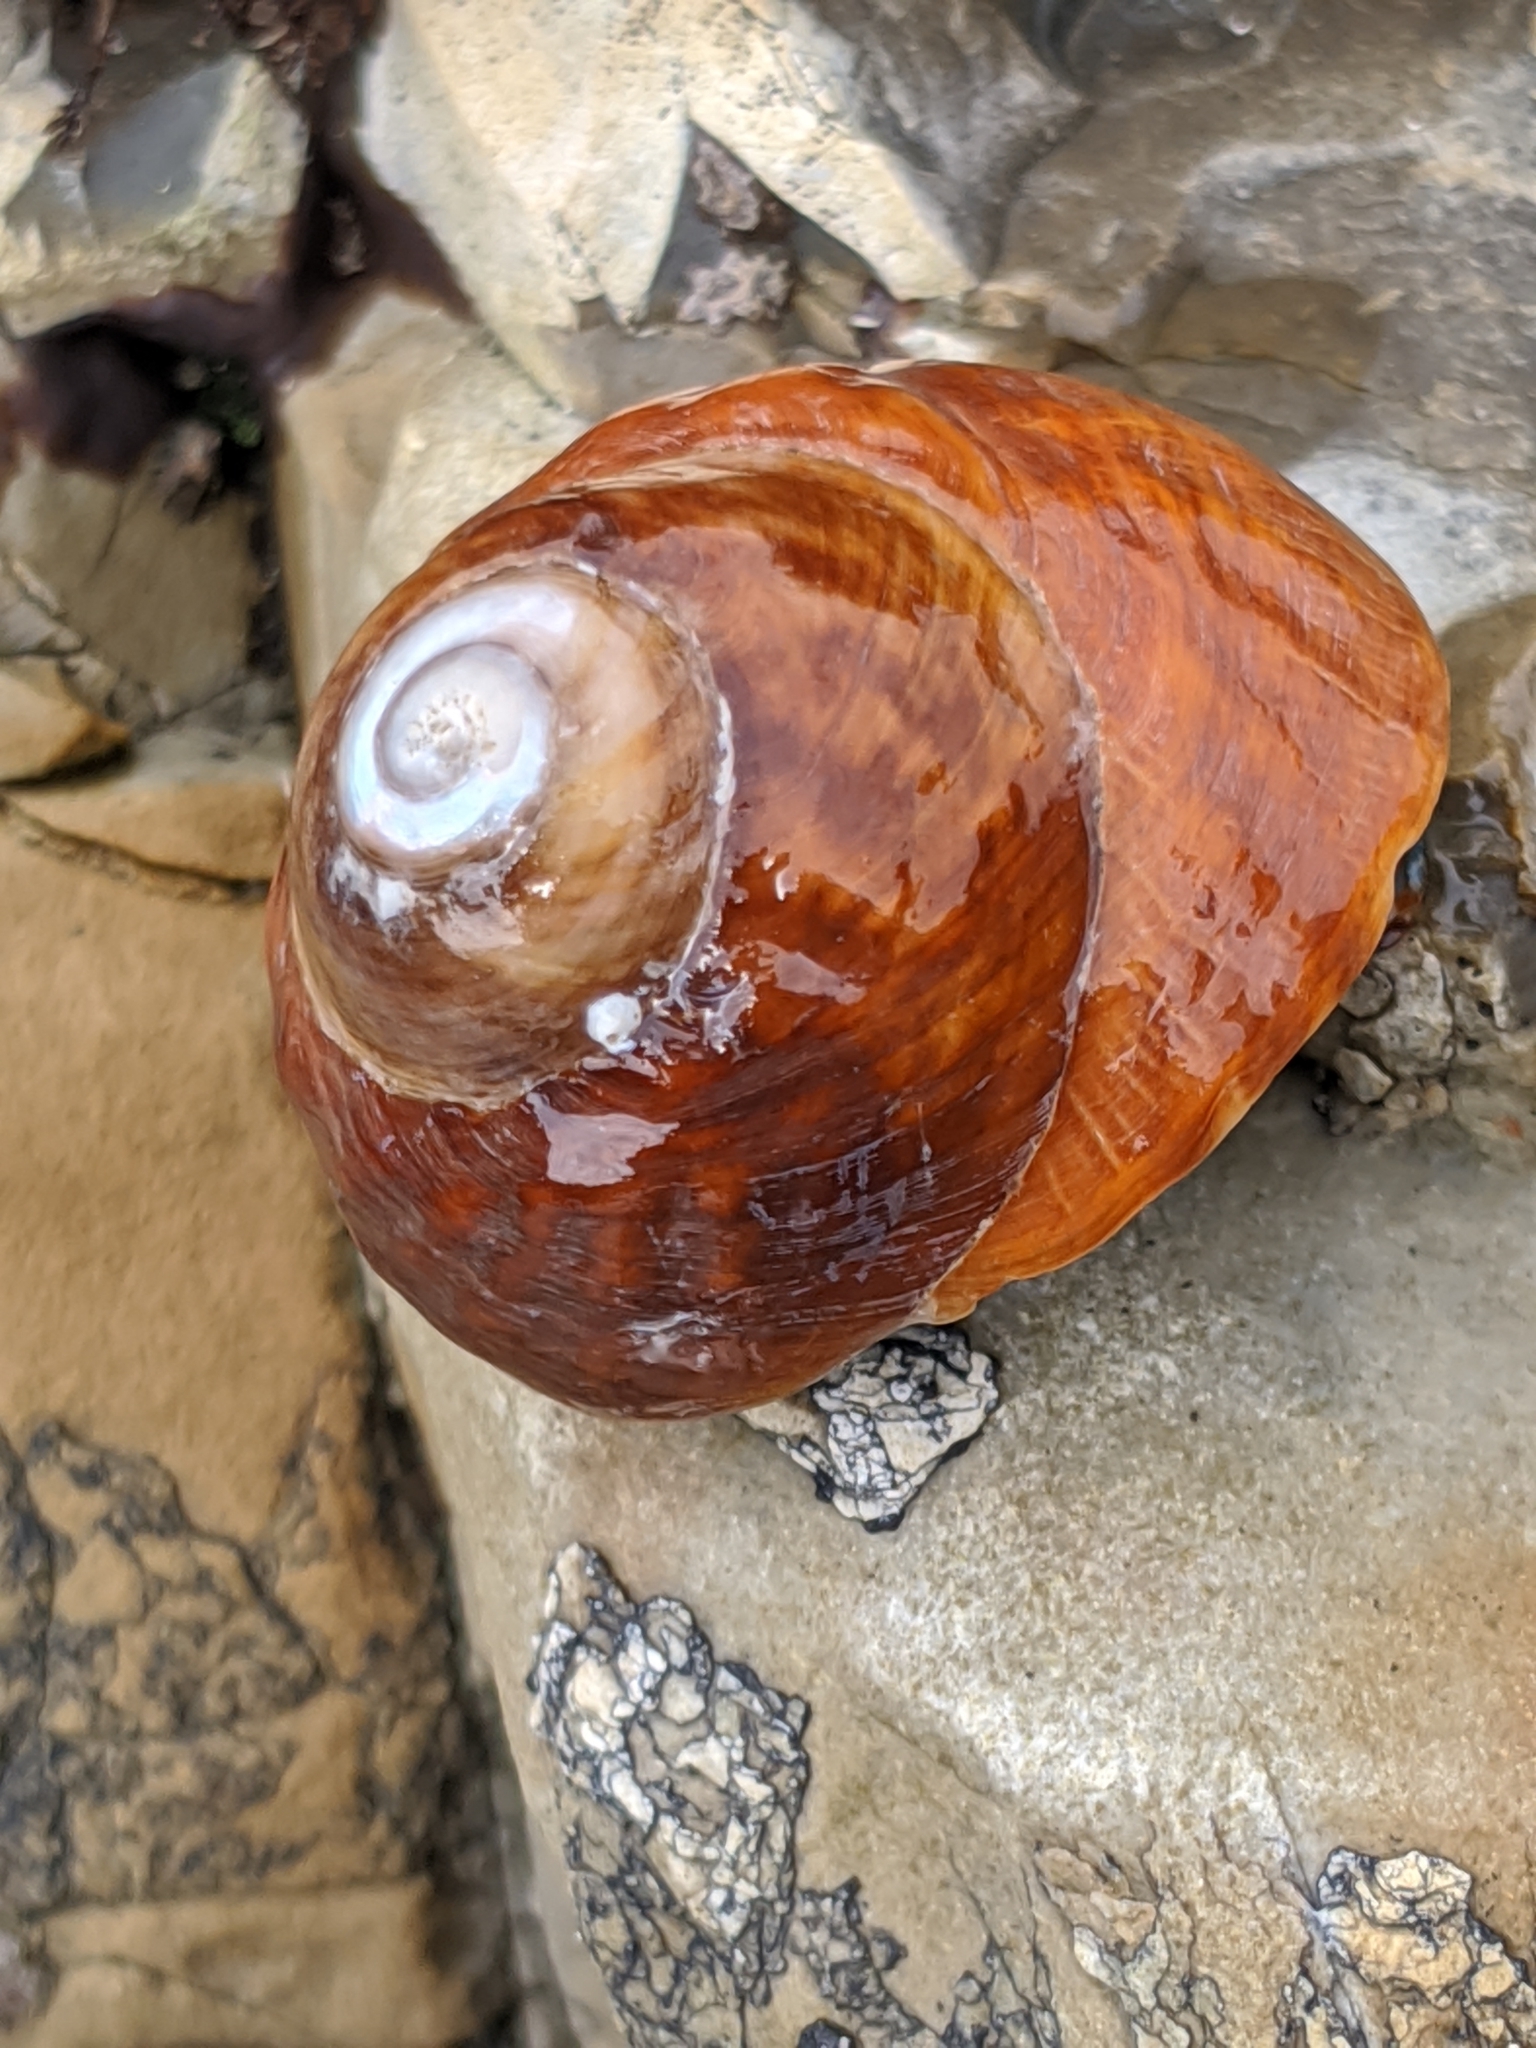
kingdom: Animalia
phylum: Mollusca
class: Gastropoda
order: Trochida
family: Tegulidae
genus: Tegula
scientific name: Tegula brunnea
